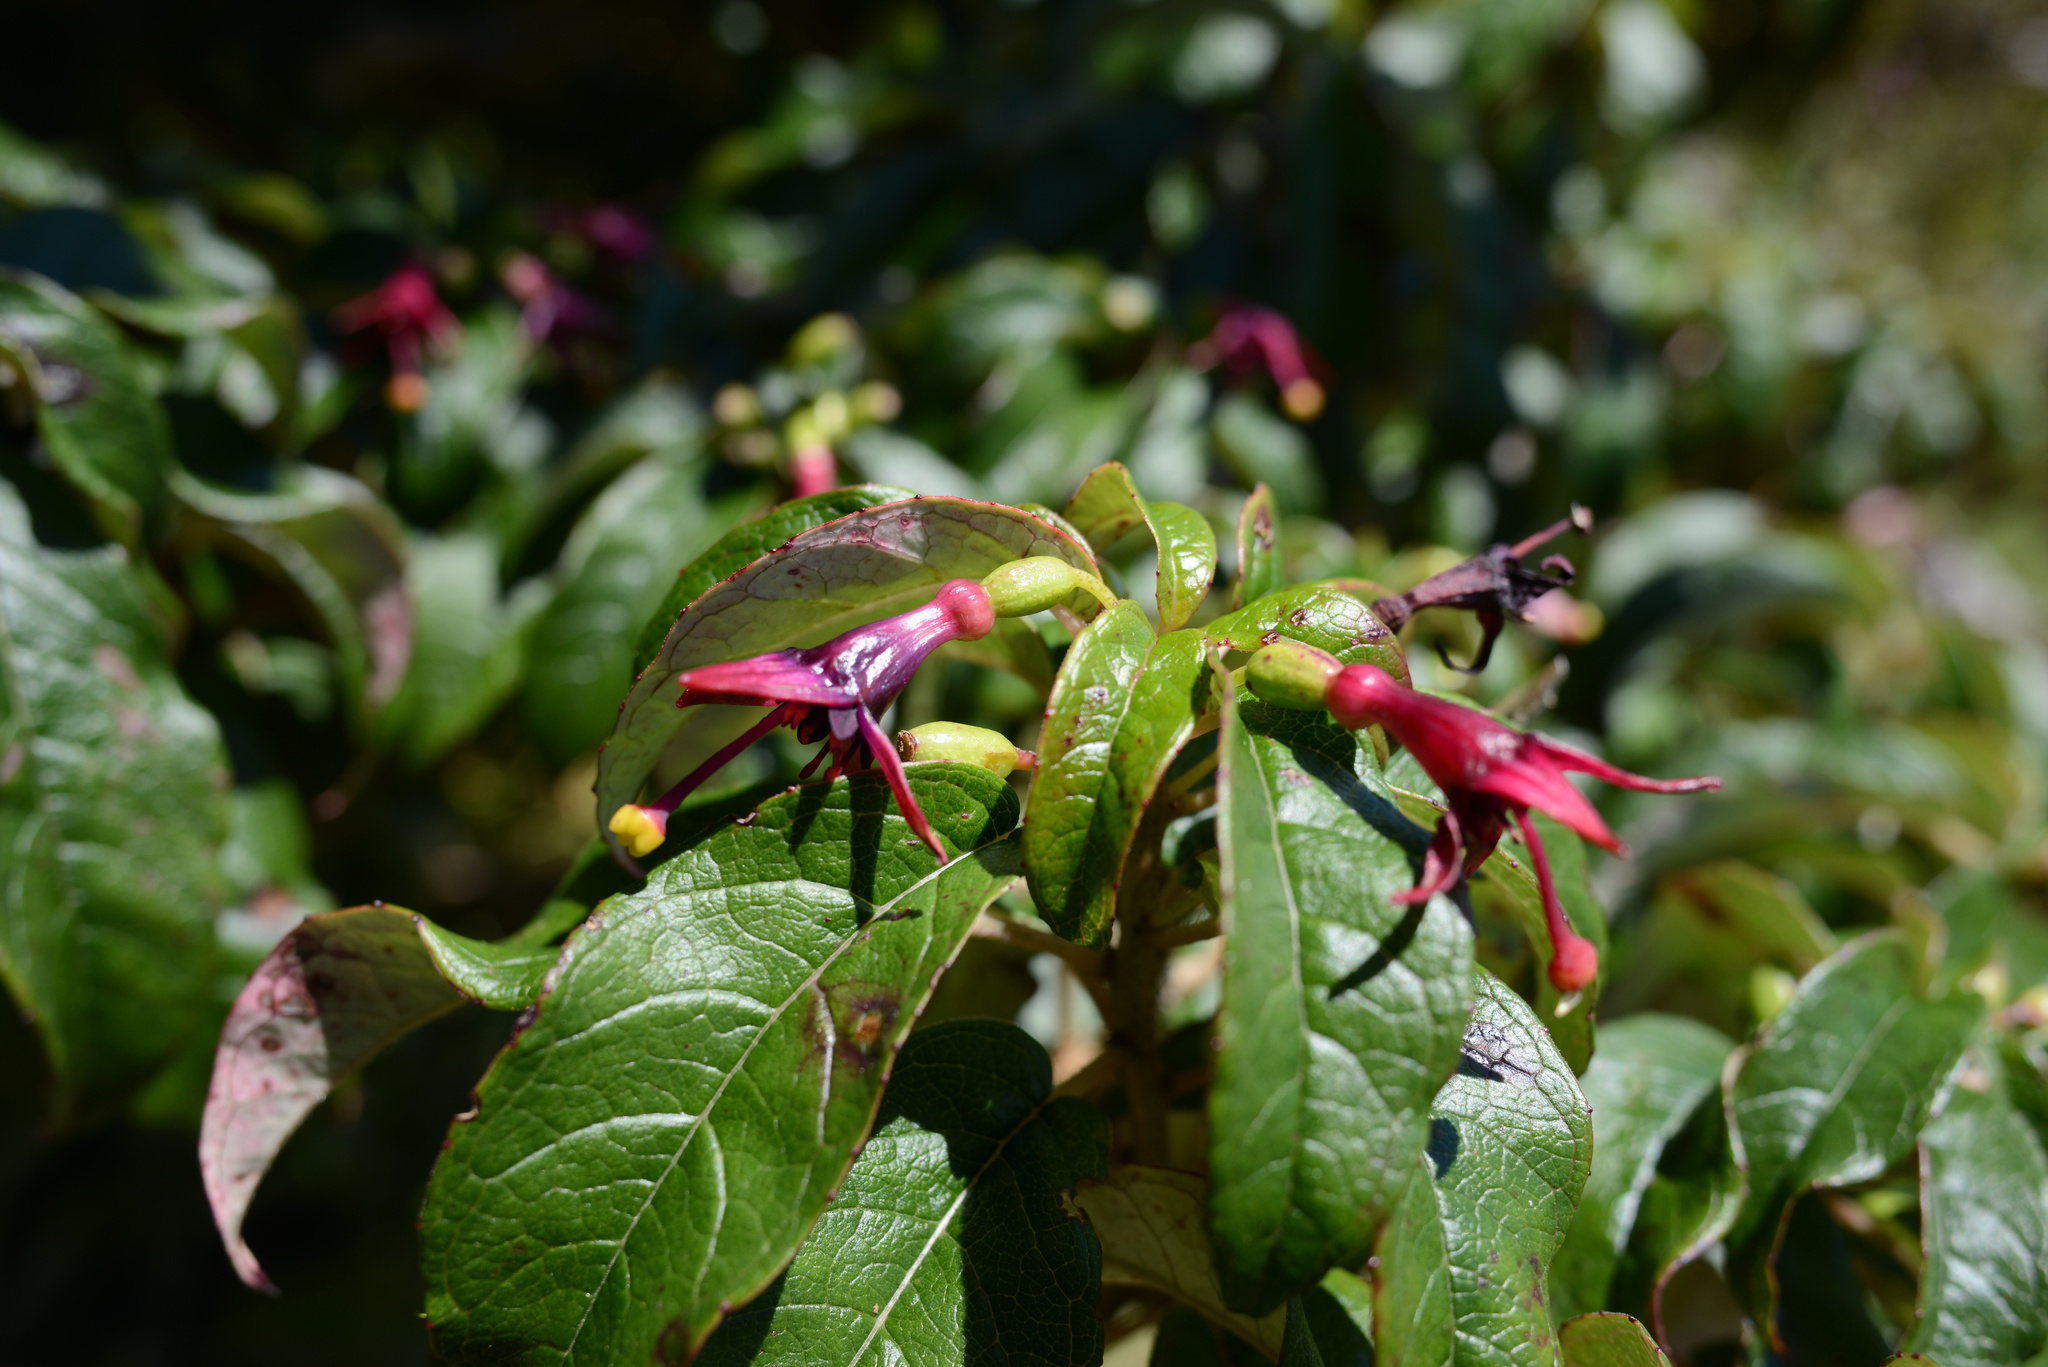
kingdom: Plantae
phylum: Tracheophyta
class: Magnoliopsida
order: Myrtales
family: Onagraceae
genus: Fuchsia
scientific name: Fuchsia excorticata
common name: Tree fuchsia
